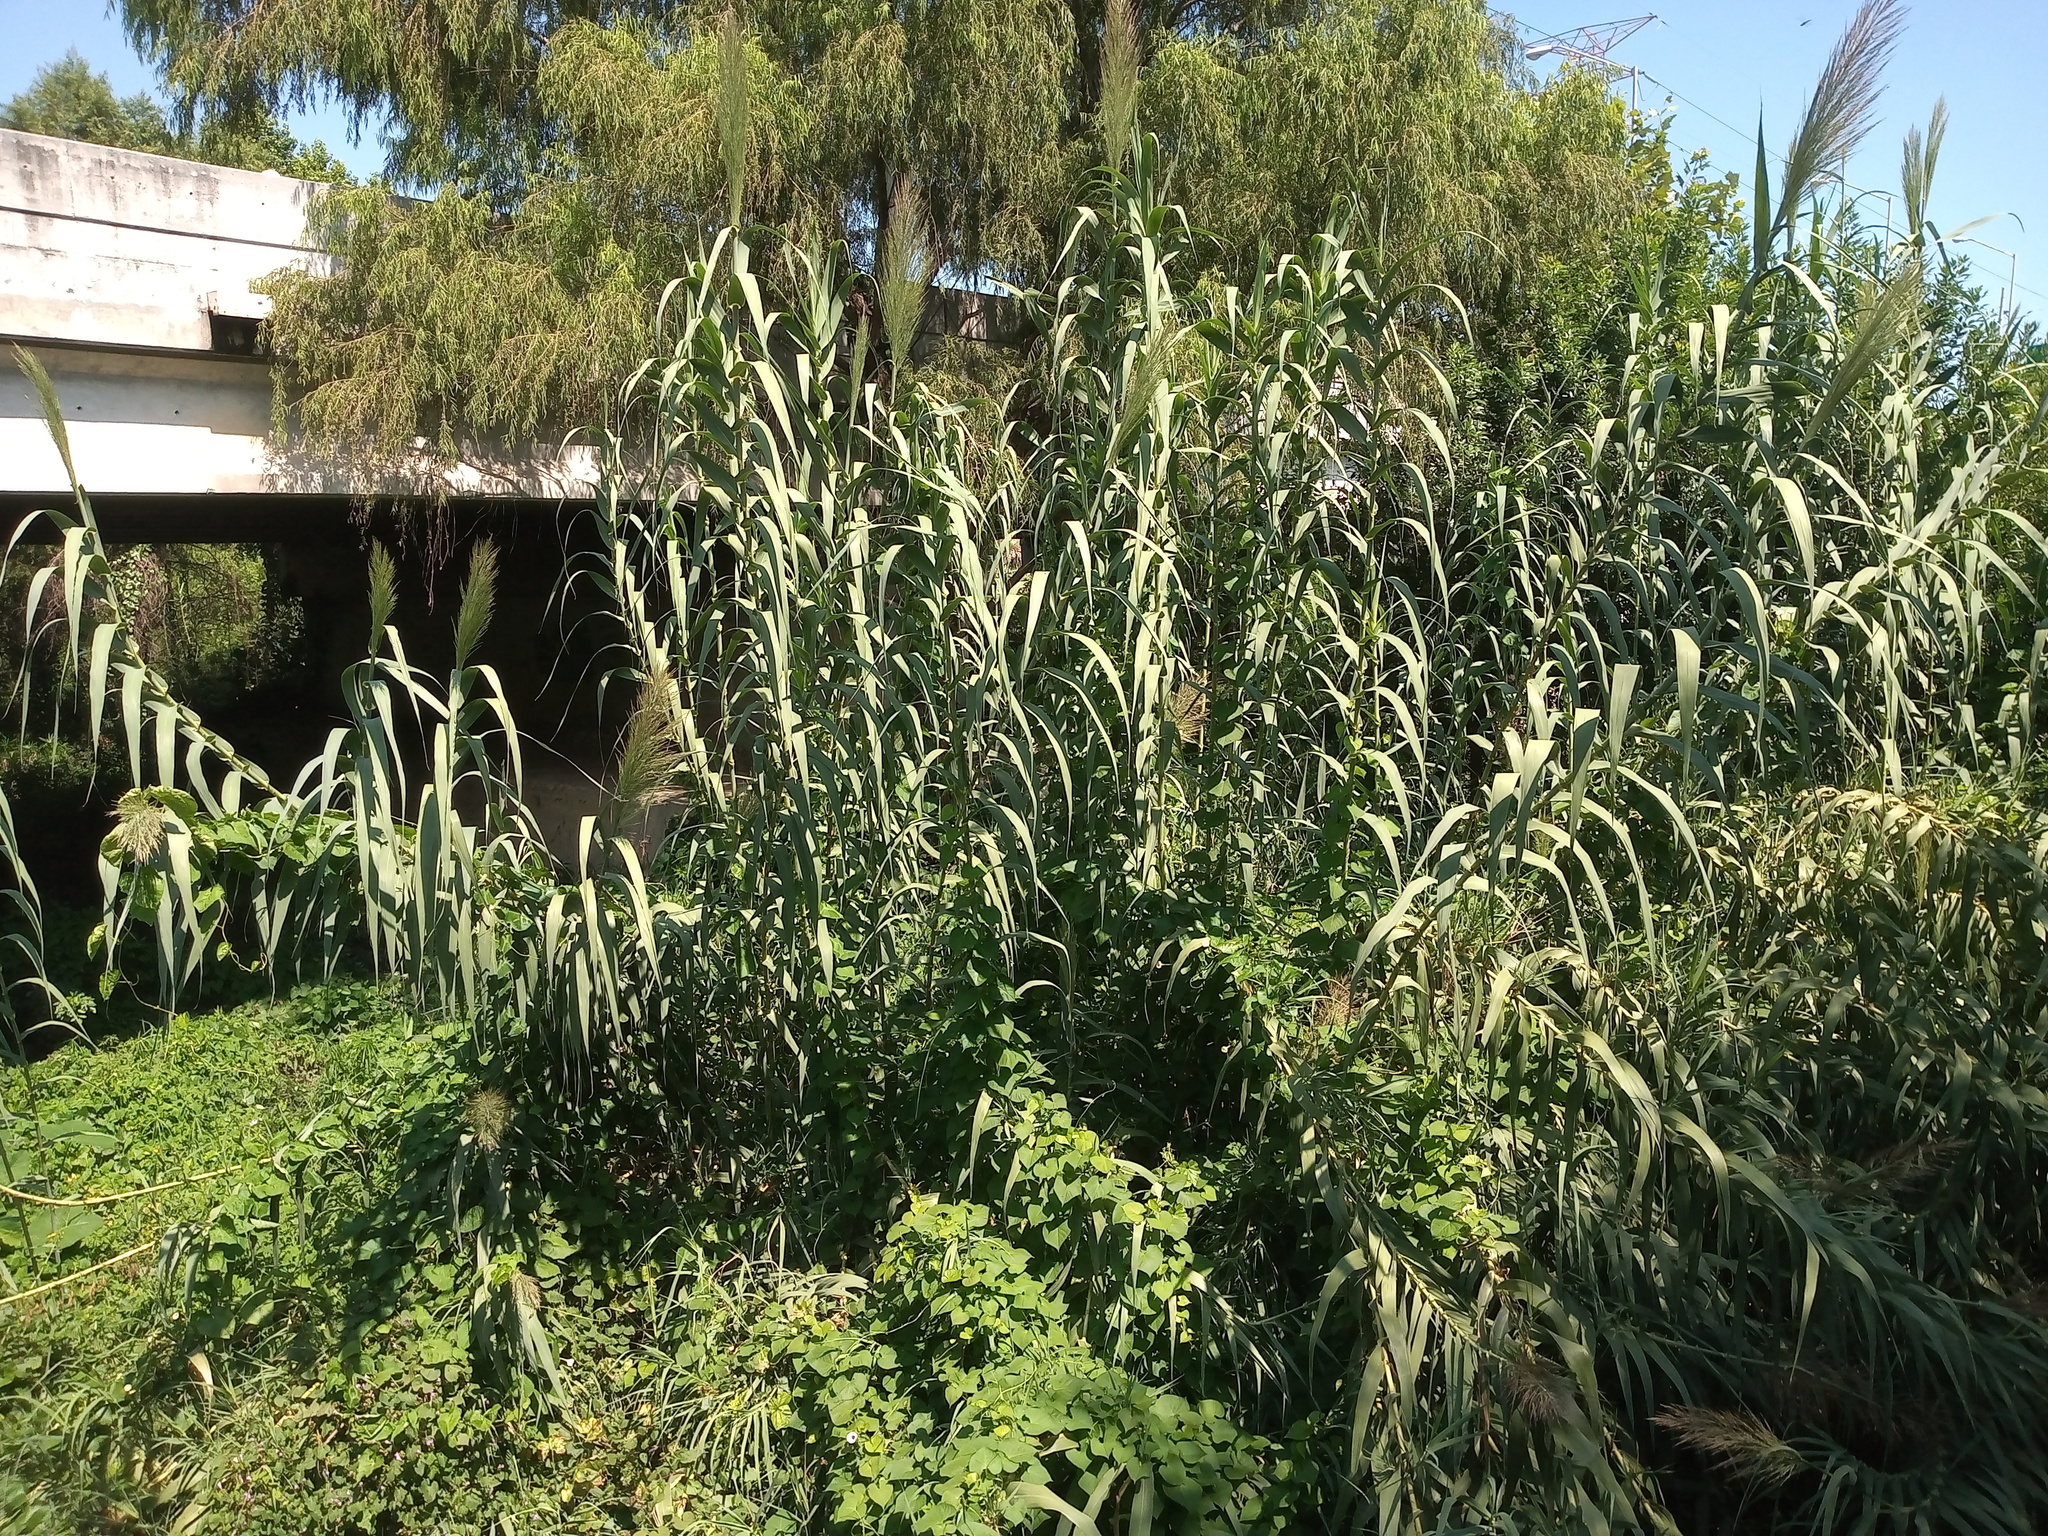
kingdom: Plantae
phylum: Tracheophyta
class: Liliopsida
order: Poales
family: Poaceae
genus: Arundo
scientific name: Arundo donax
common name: Giant reed
